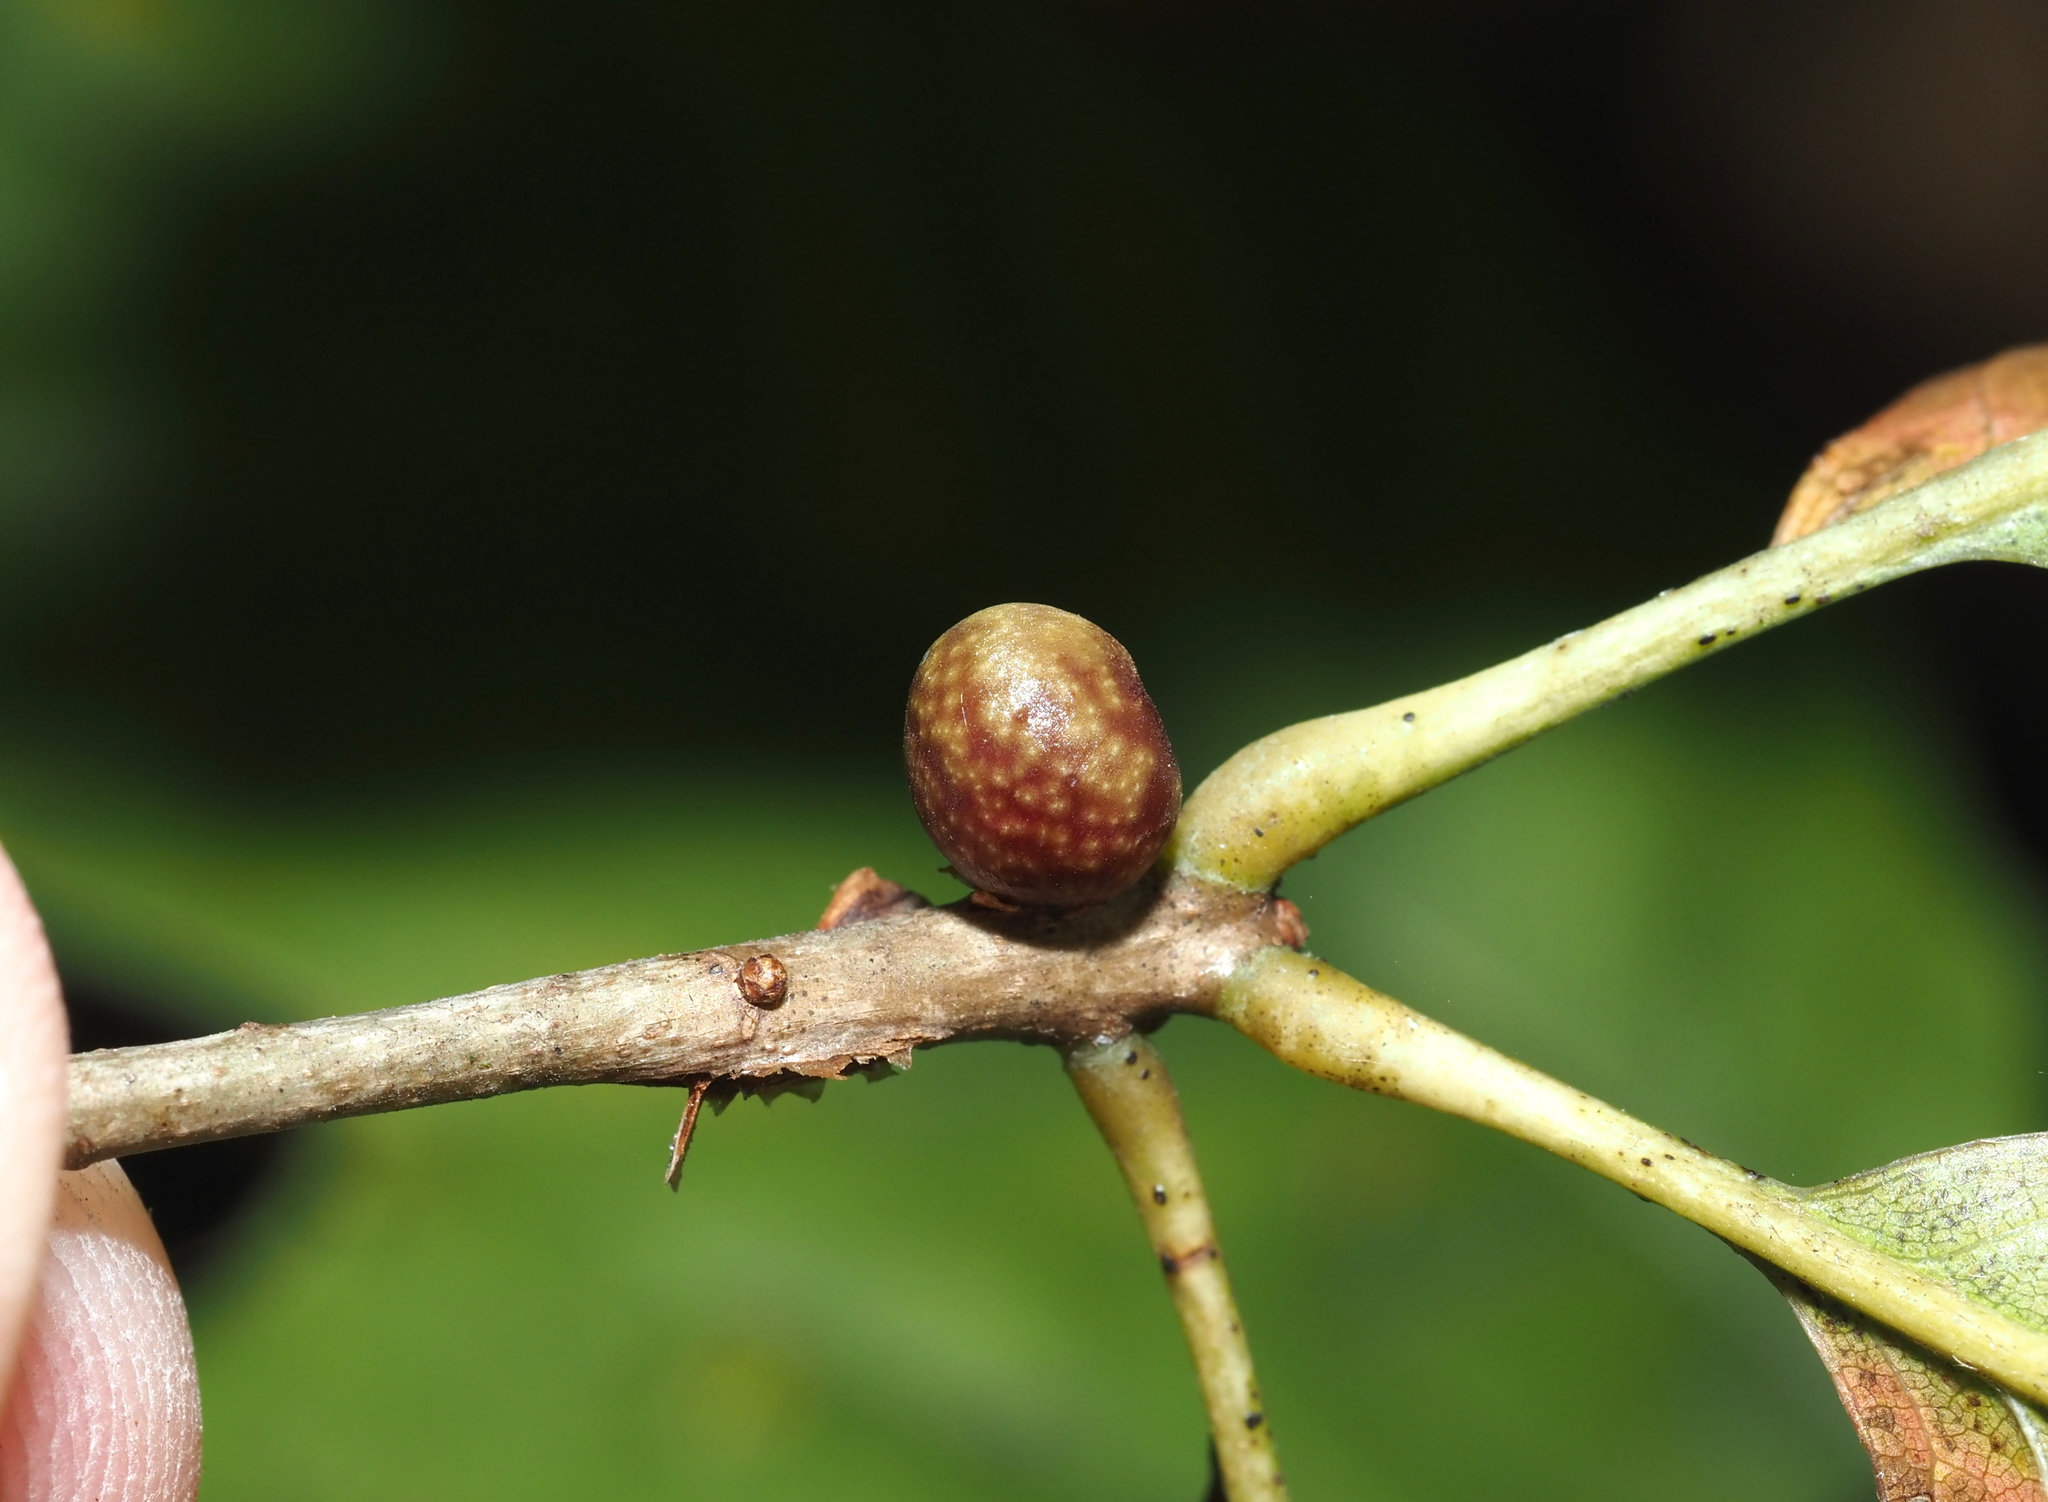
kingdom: Animalia
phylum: Arthropoda
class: Insecta
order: Hymenoptera
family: Cynipidae
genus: Kokkocynips
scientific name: Kokkocynips imbricariae
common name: Banded bullet gall wasp
